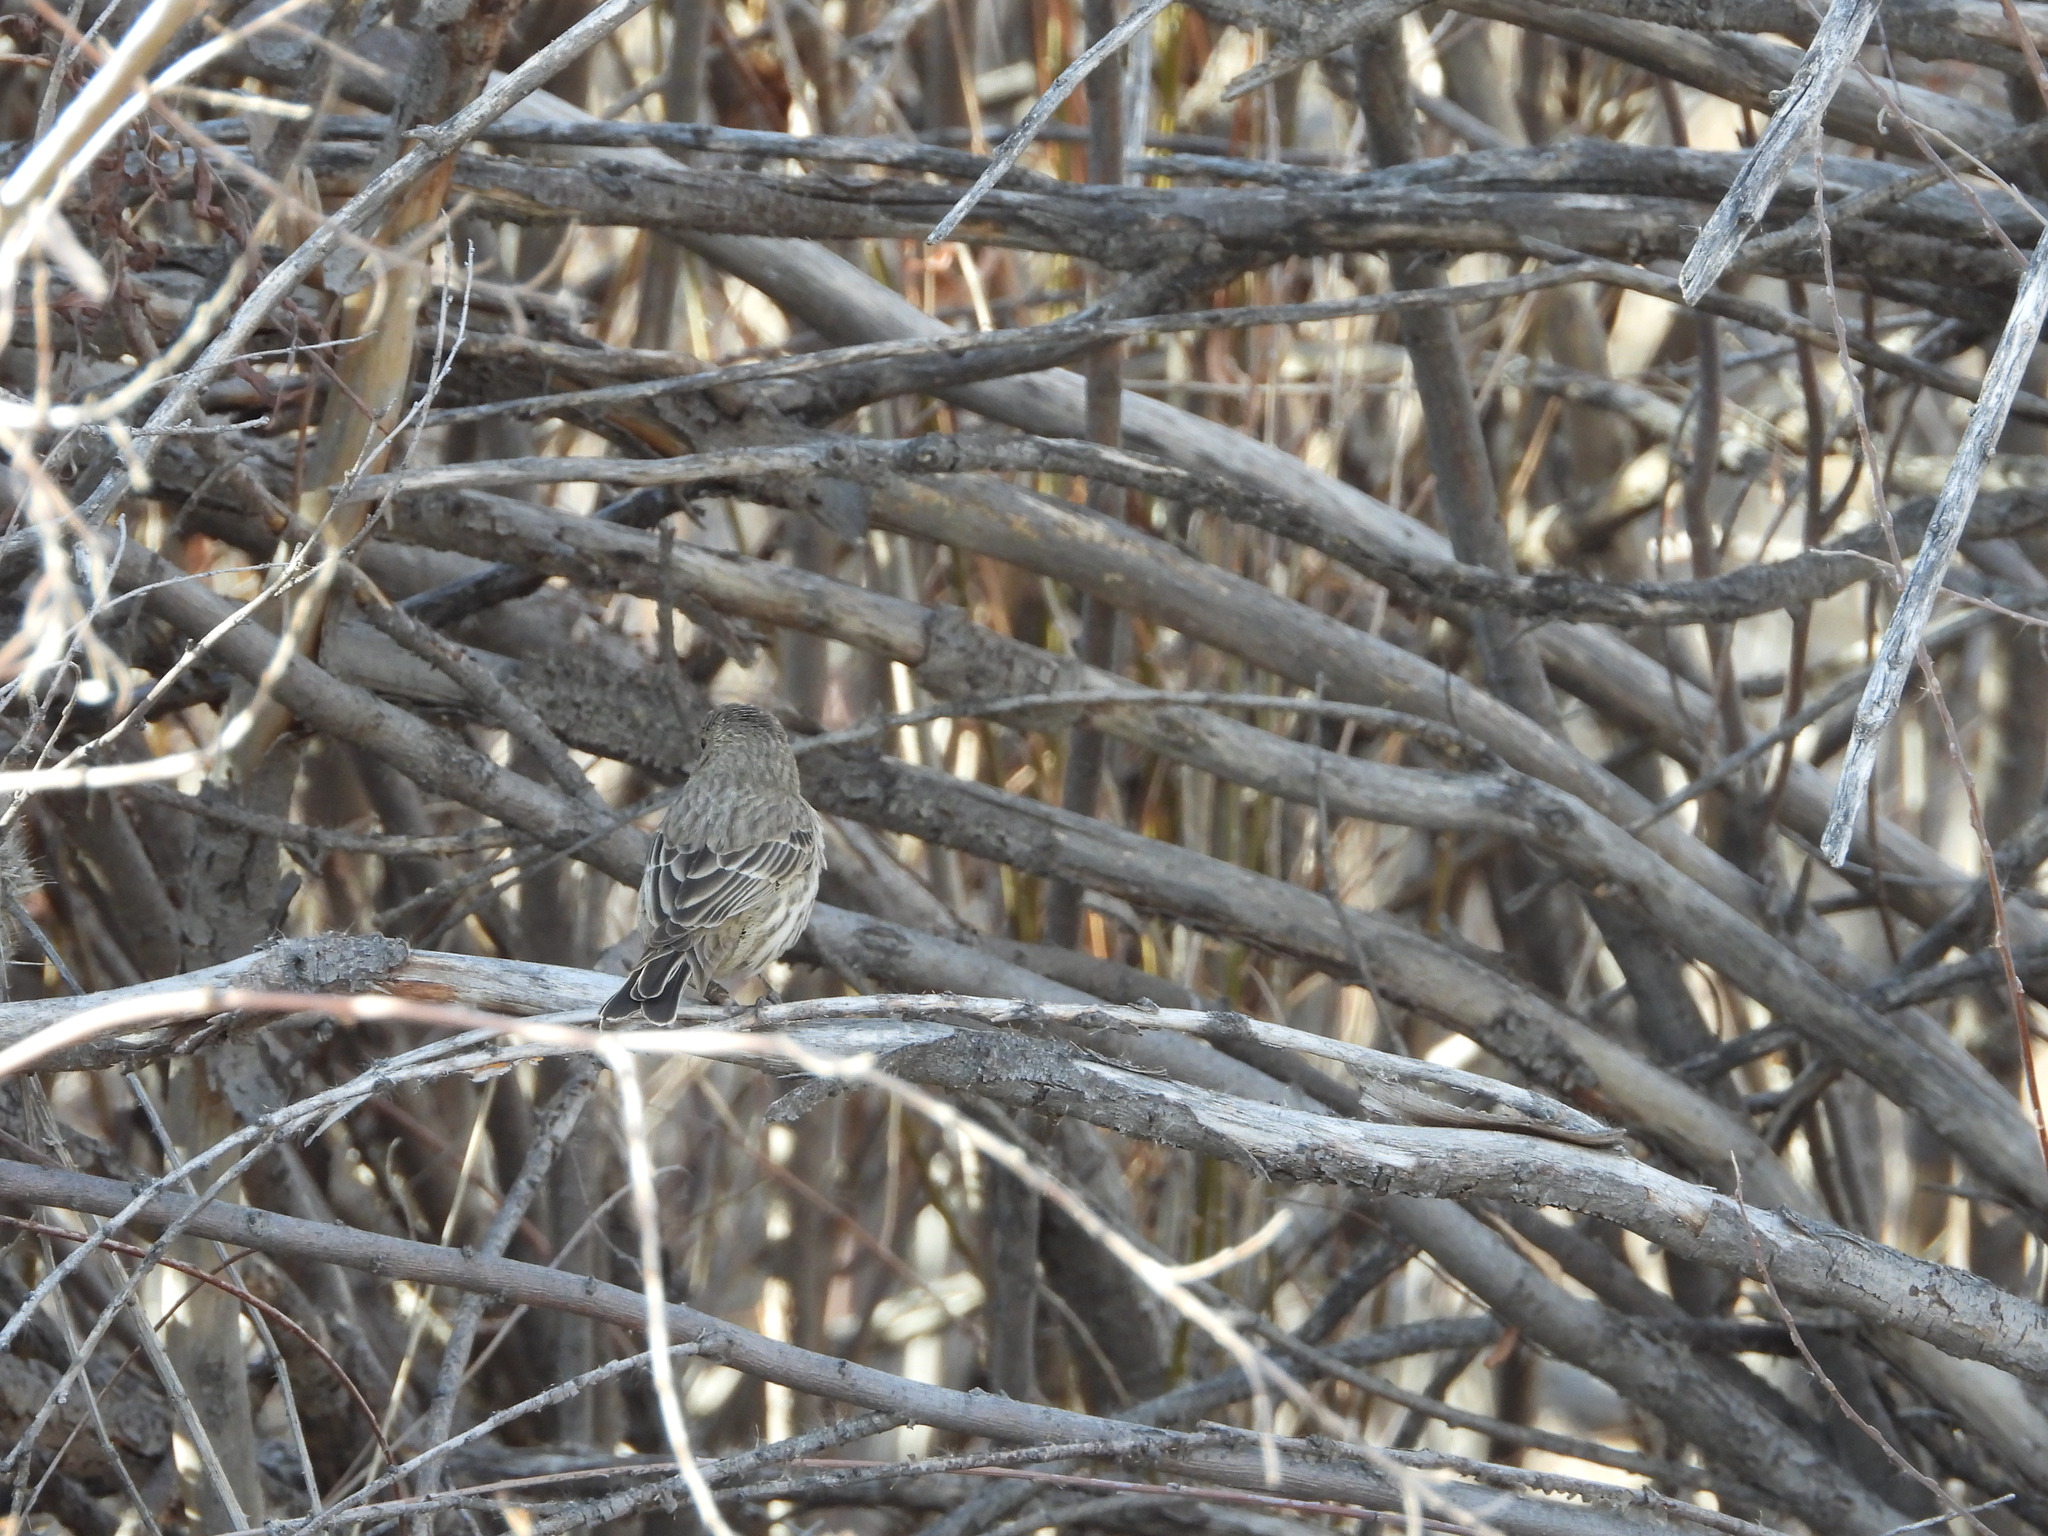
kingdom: Animalia
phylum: Chordata
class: Aves
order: Passeriformes
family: Fringillidae
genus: Haemorhous
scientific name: Haemorhous mexicanus
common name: House finch
